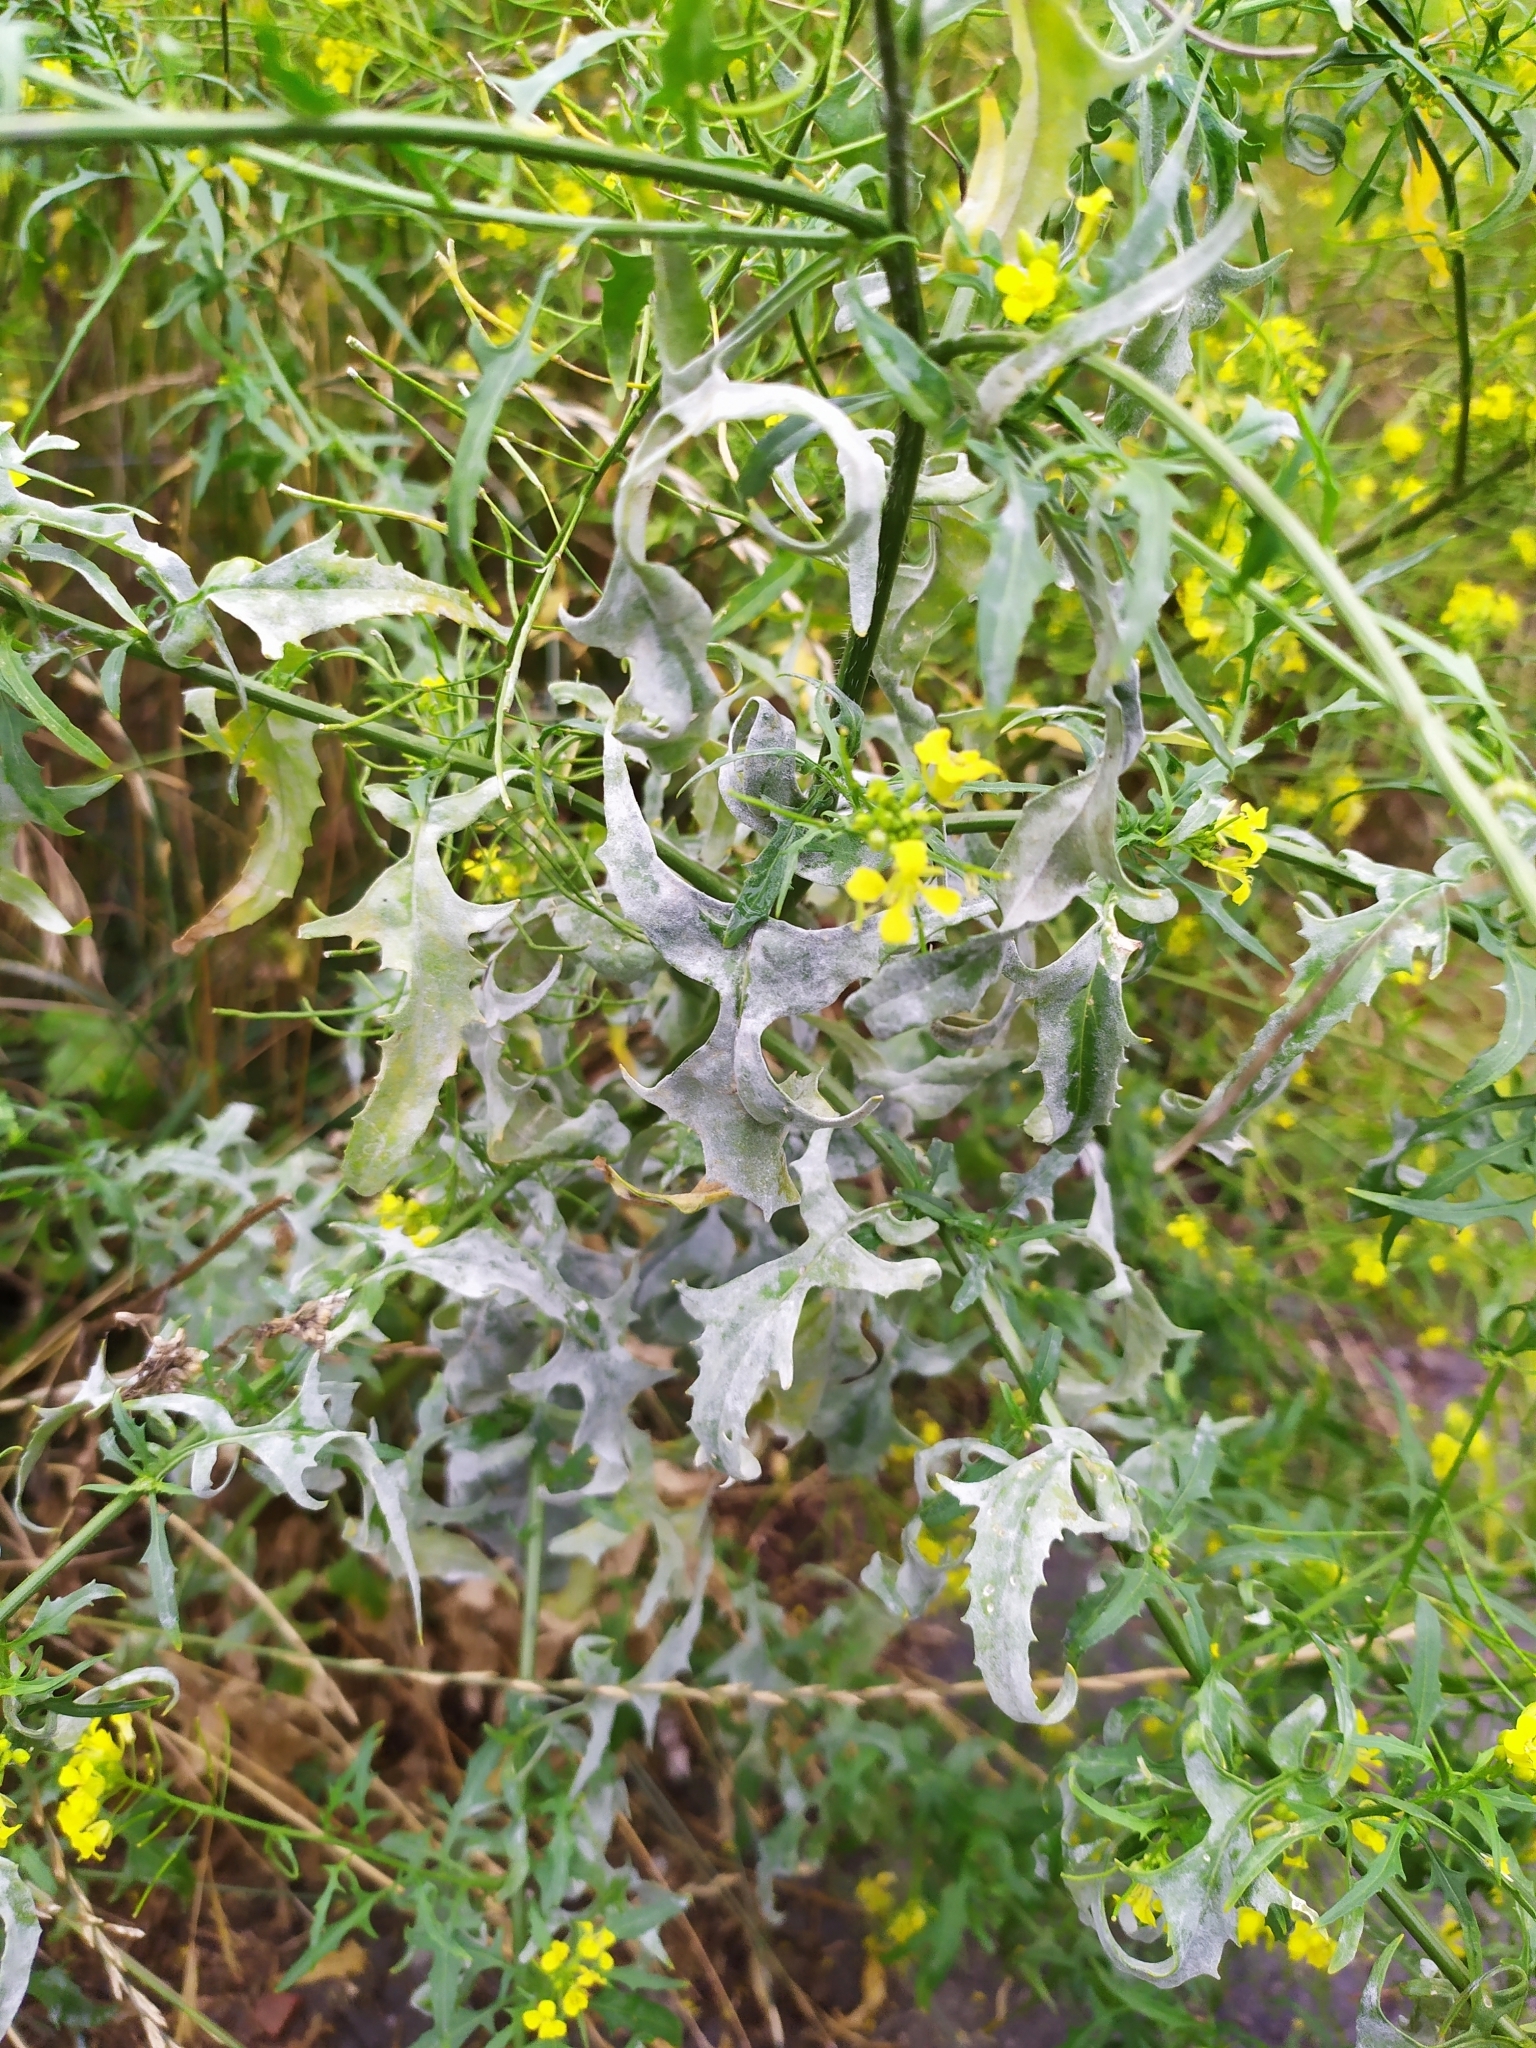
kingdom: Fungi
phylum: Ascomycota
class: Leotiomycetes
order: Helotiales
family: Erysiphaceae
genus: Erysiphe
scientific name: Erysiphe cruciferarum
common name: Brassica powdery mildew
